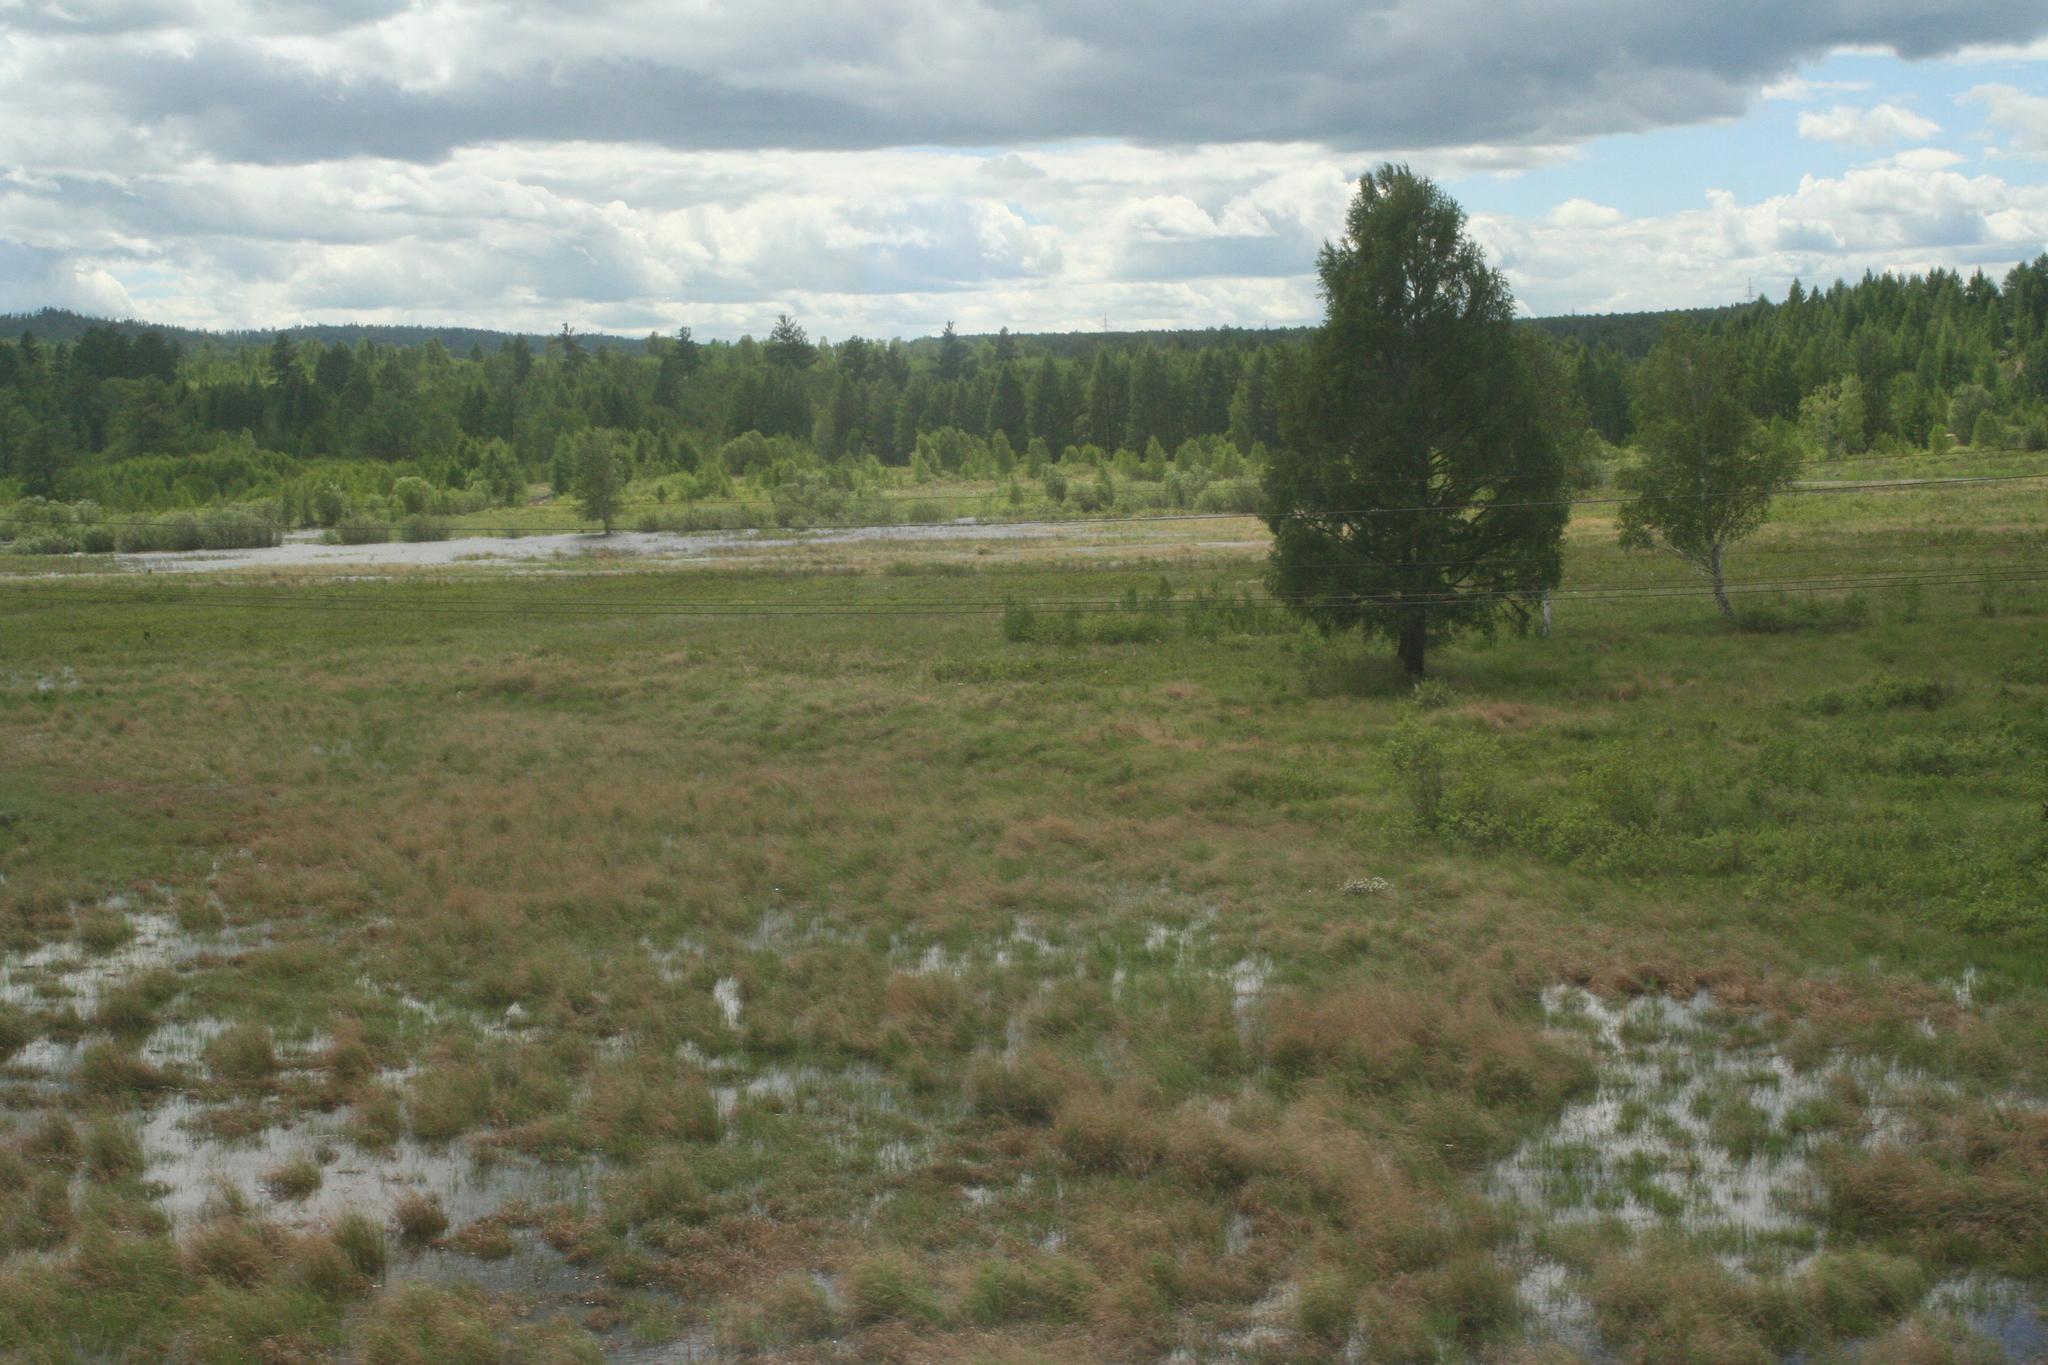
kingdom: Plantae
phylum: Tracheophyta
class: Pinopsida
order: Pinales
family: Pinaceae
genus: Larix
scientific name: Larix gmelinii
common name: Dahurian larch
